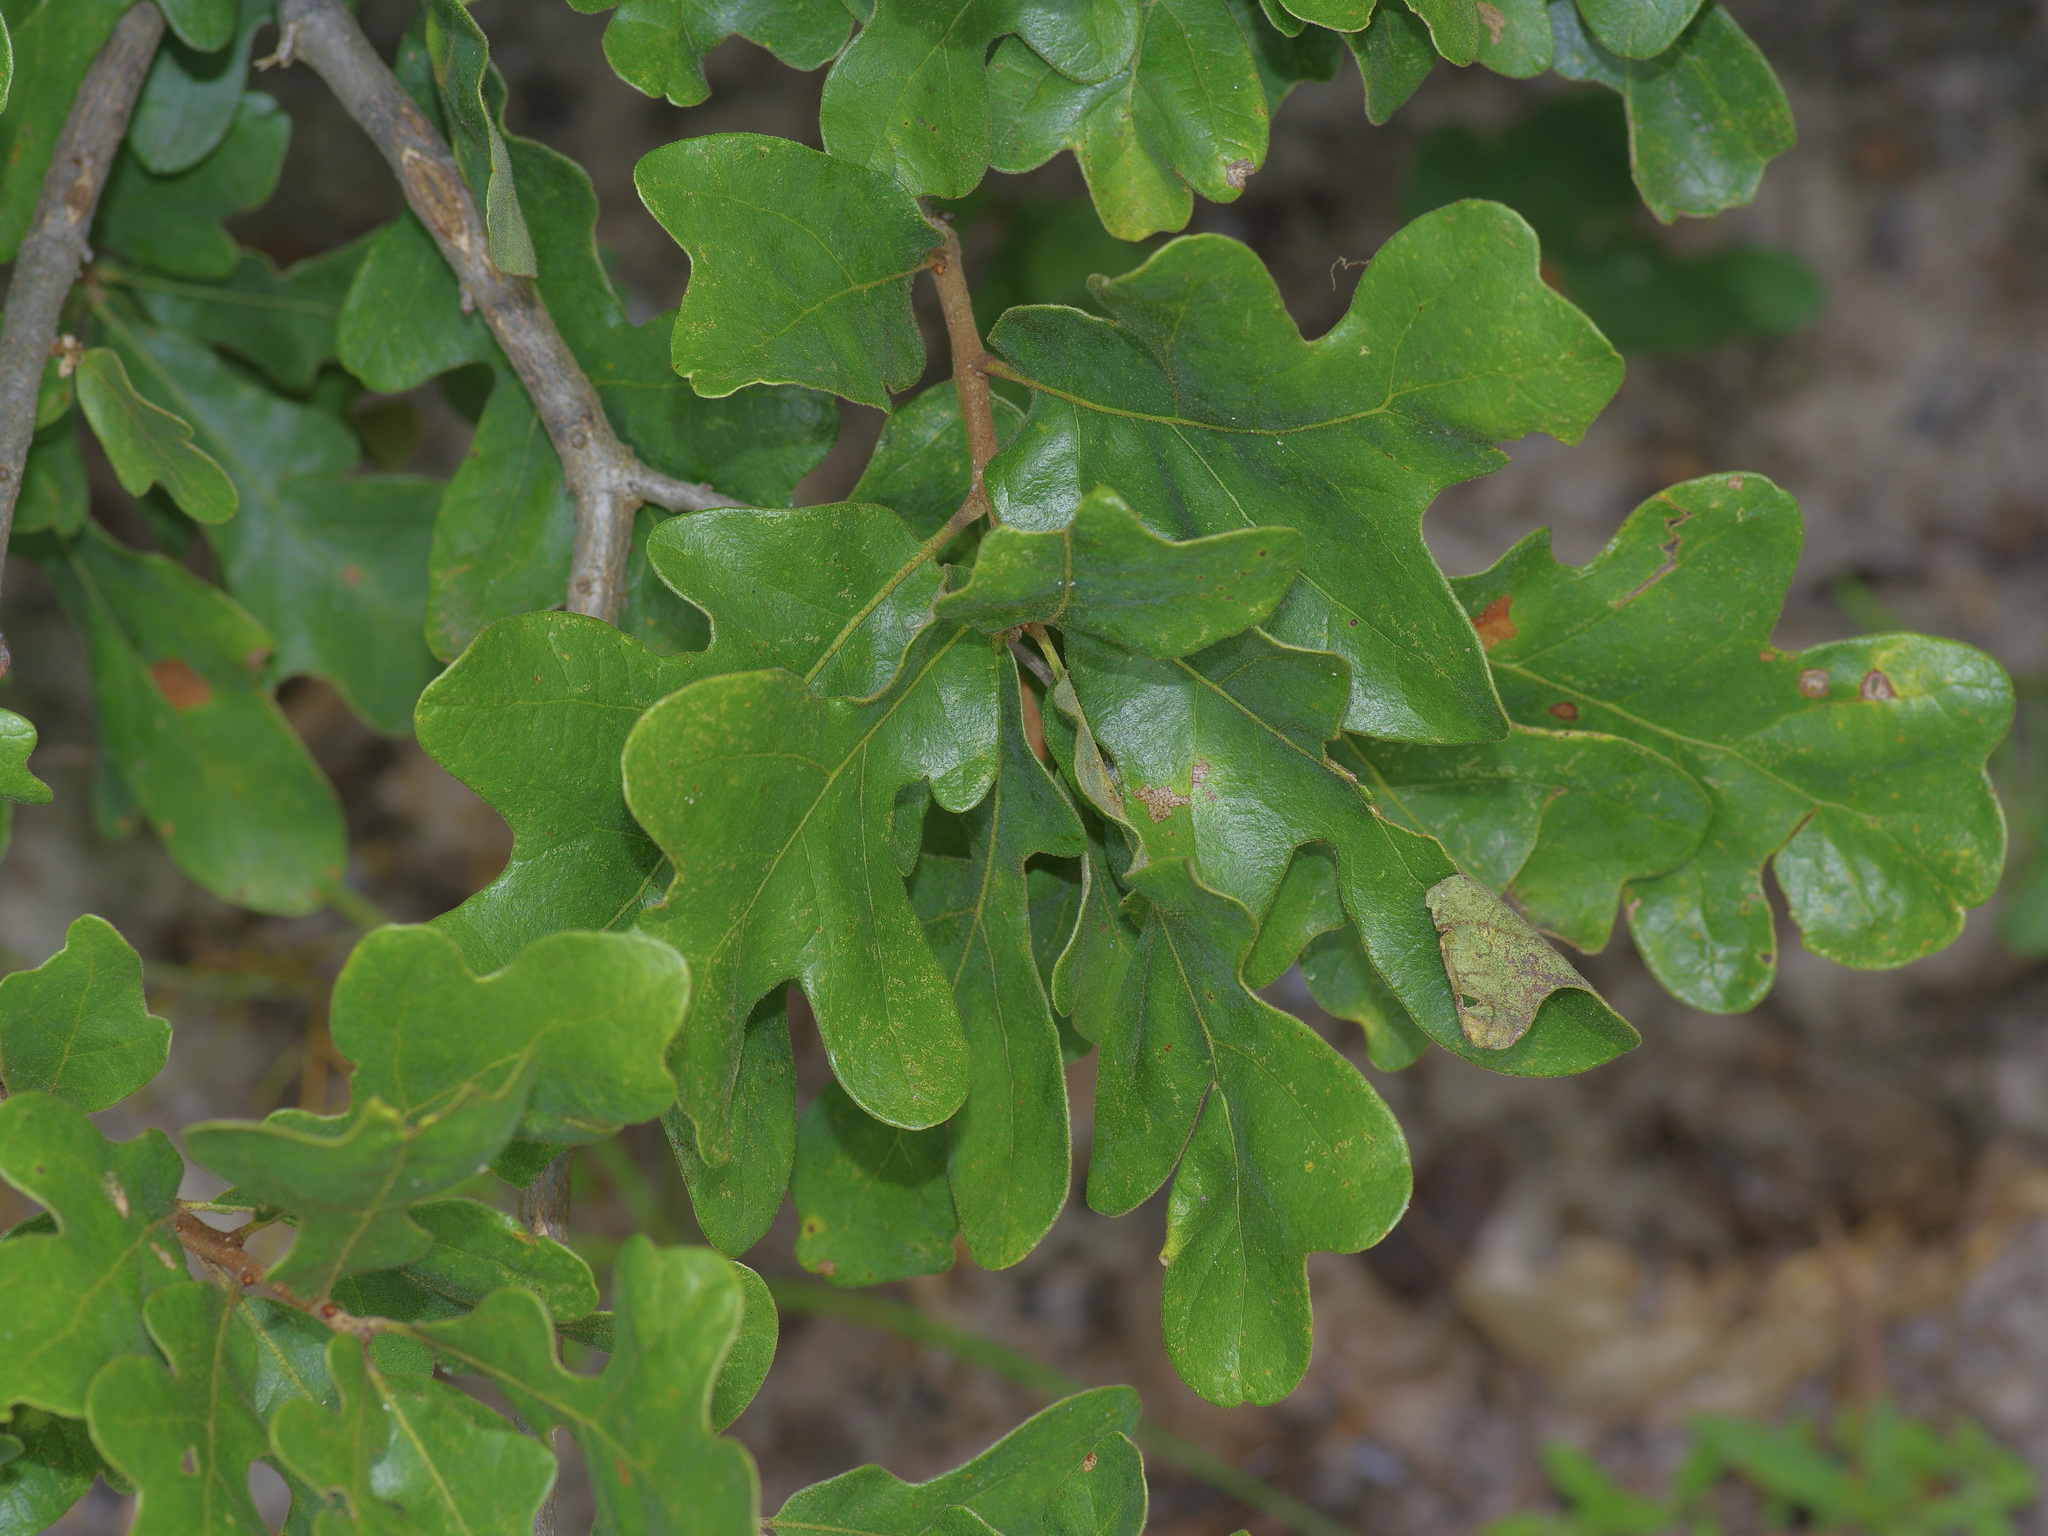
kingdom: Plantae
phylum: Tracheophyta
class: Magnoliopsida
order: Fagales
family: Fagaceae
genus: Quercus
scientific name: Quercus margaretiae
